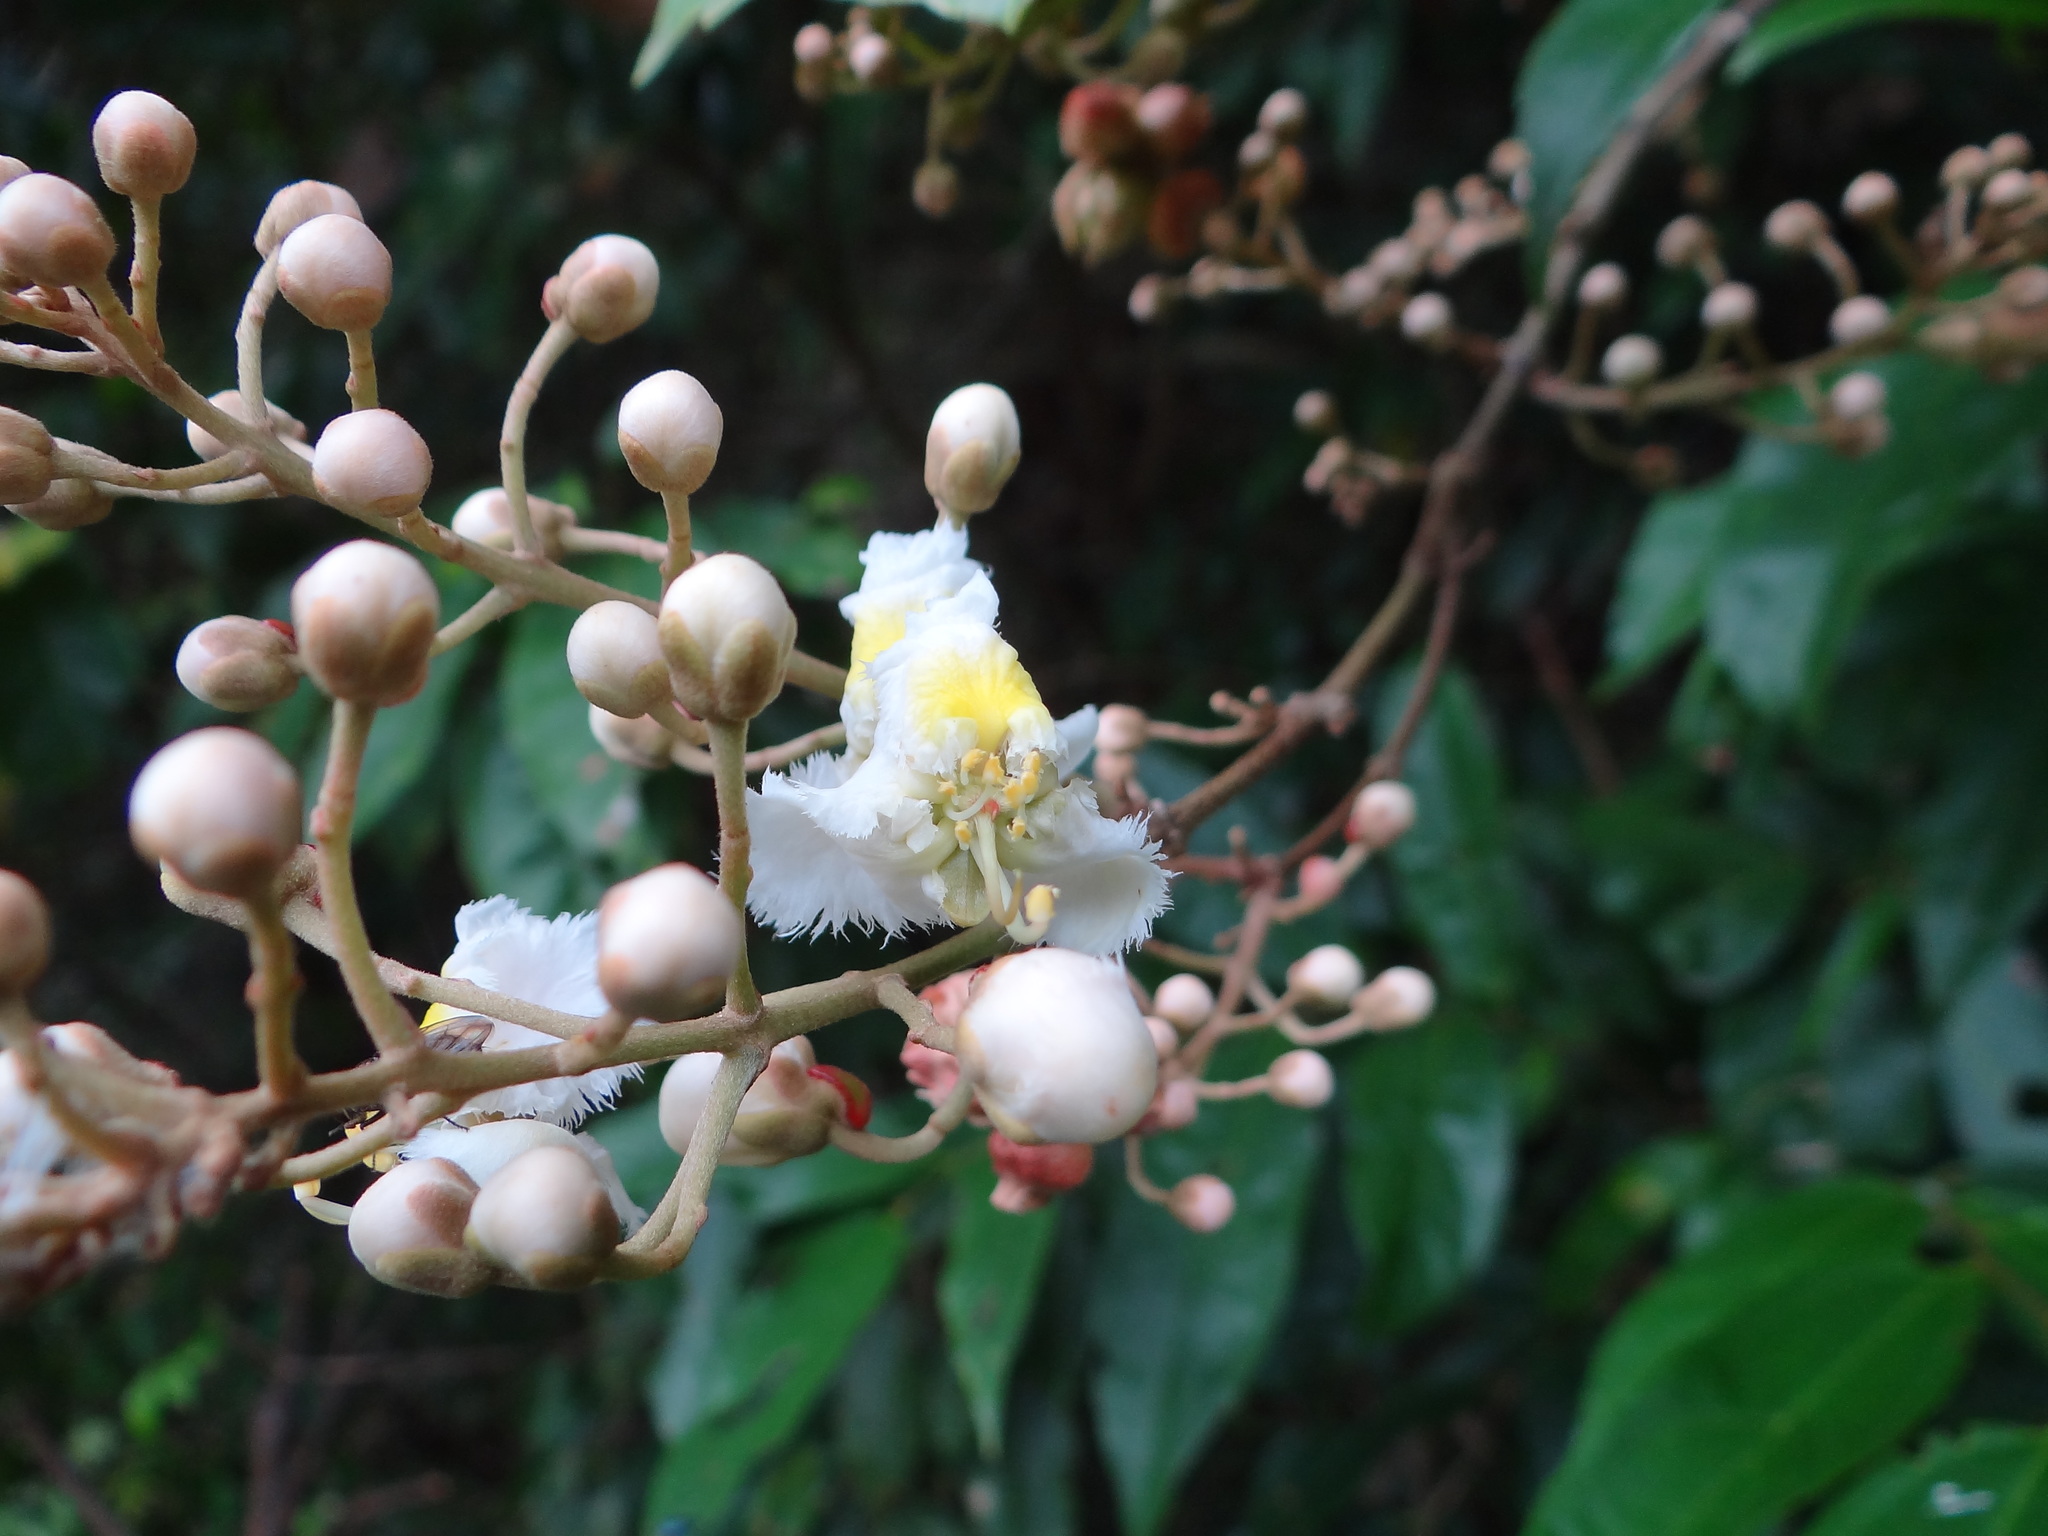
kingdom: Plantae
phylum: Tracheophyta
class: Magnoliopsida
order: Malpighiales
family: Malpighiaceae
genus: Hiptage
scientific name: Hiptage benghalensis
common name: Hiptage
